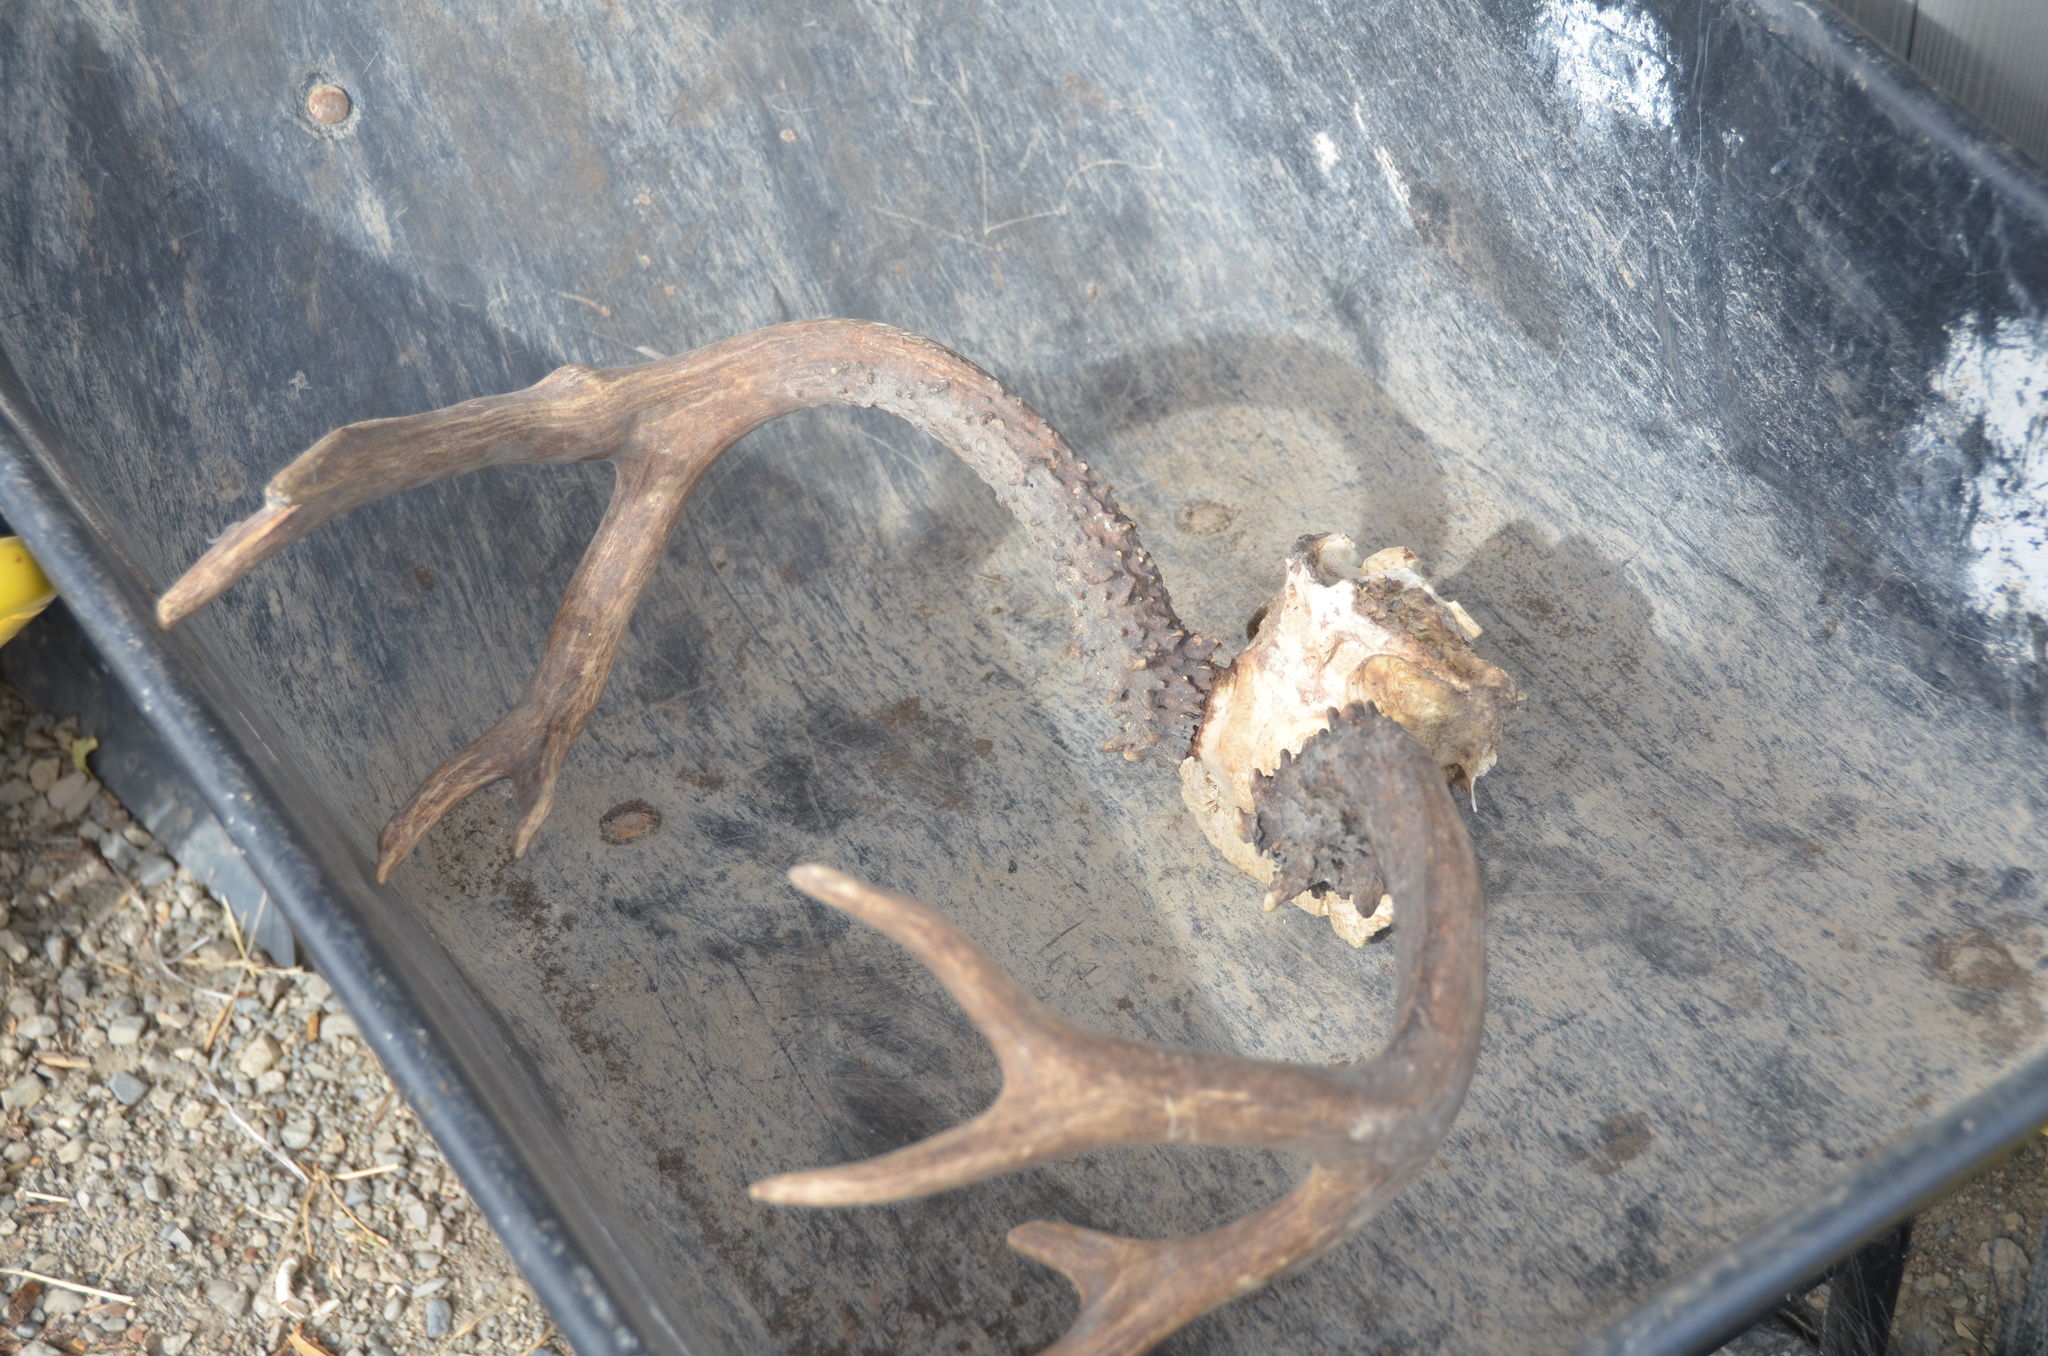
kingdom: Animalia
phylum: Chordata
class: Mammalia
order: Artiodactyla
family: Cervidae
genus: Odocoileus
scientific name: Odocoileus hemionus
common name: Mule deer
